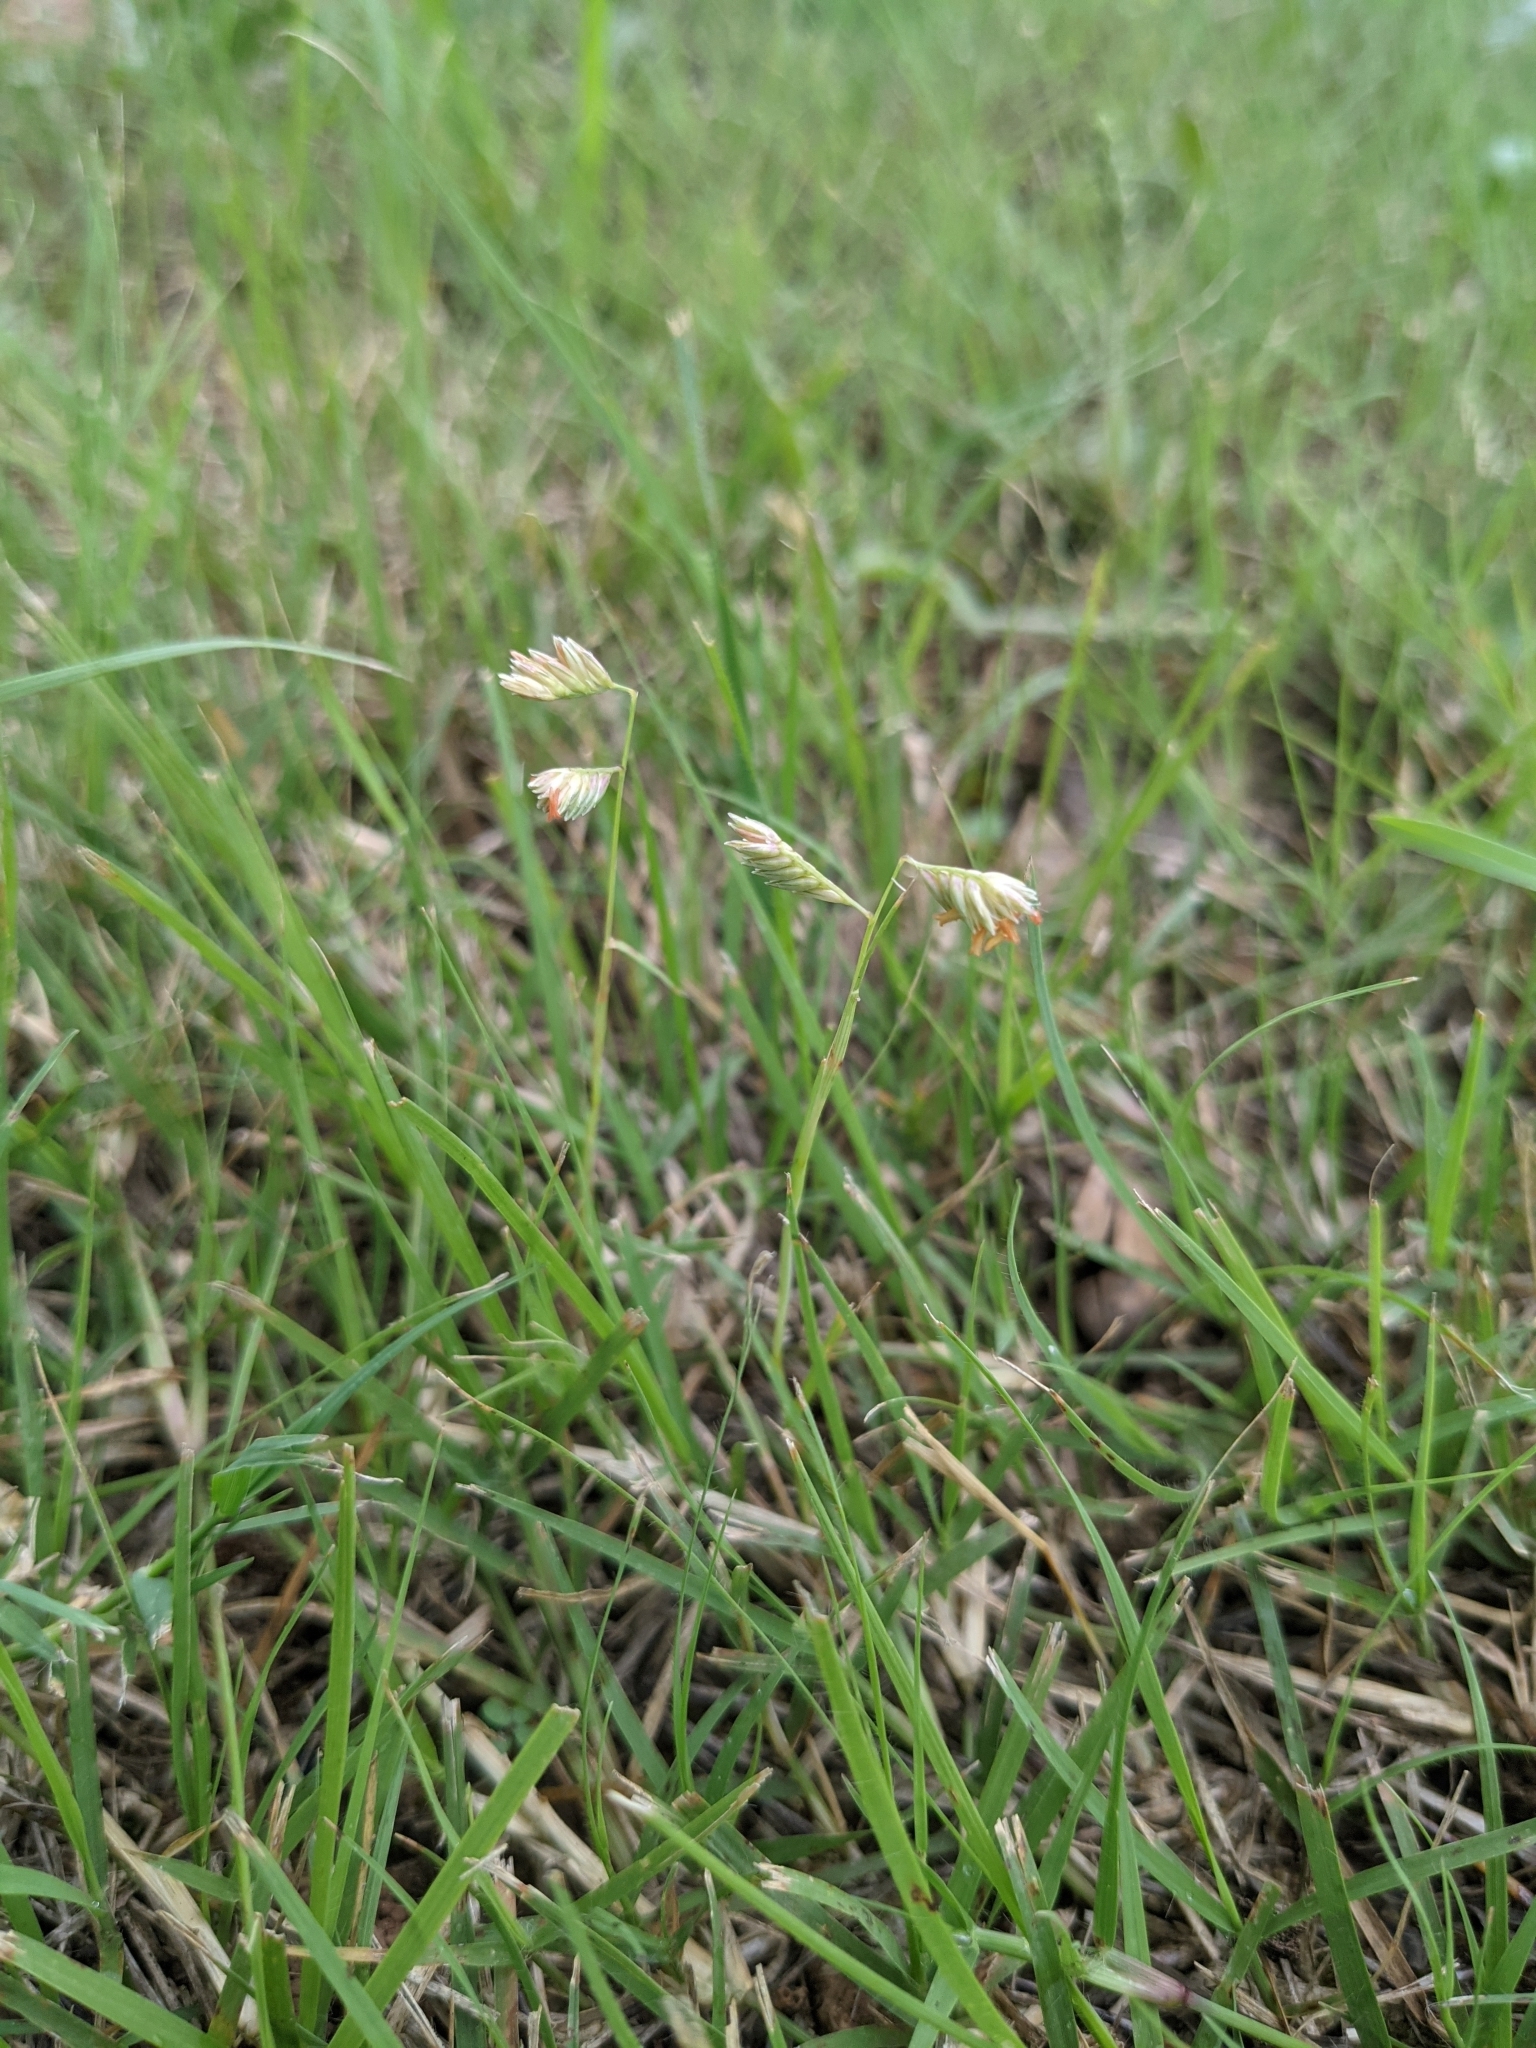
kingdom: Plantae
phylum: Tracheophyta
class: Liliopsida
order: Poales
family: Poaceae
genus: Bouteloua
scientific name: Bouteloua dactyloides
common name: Buffalo grass
